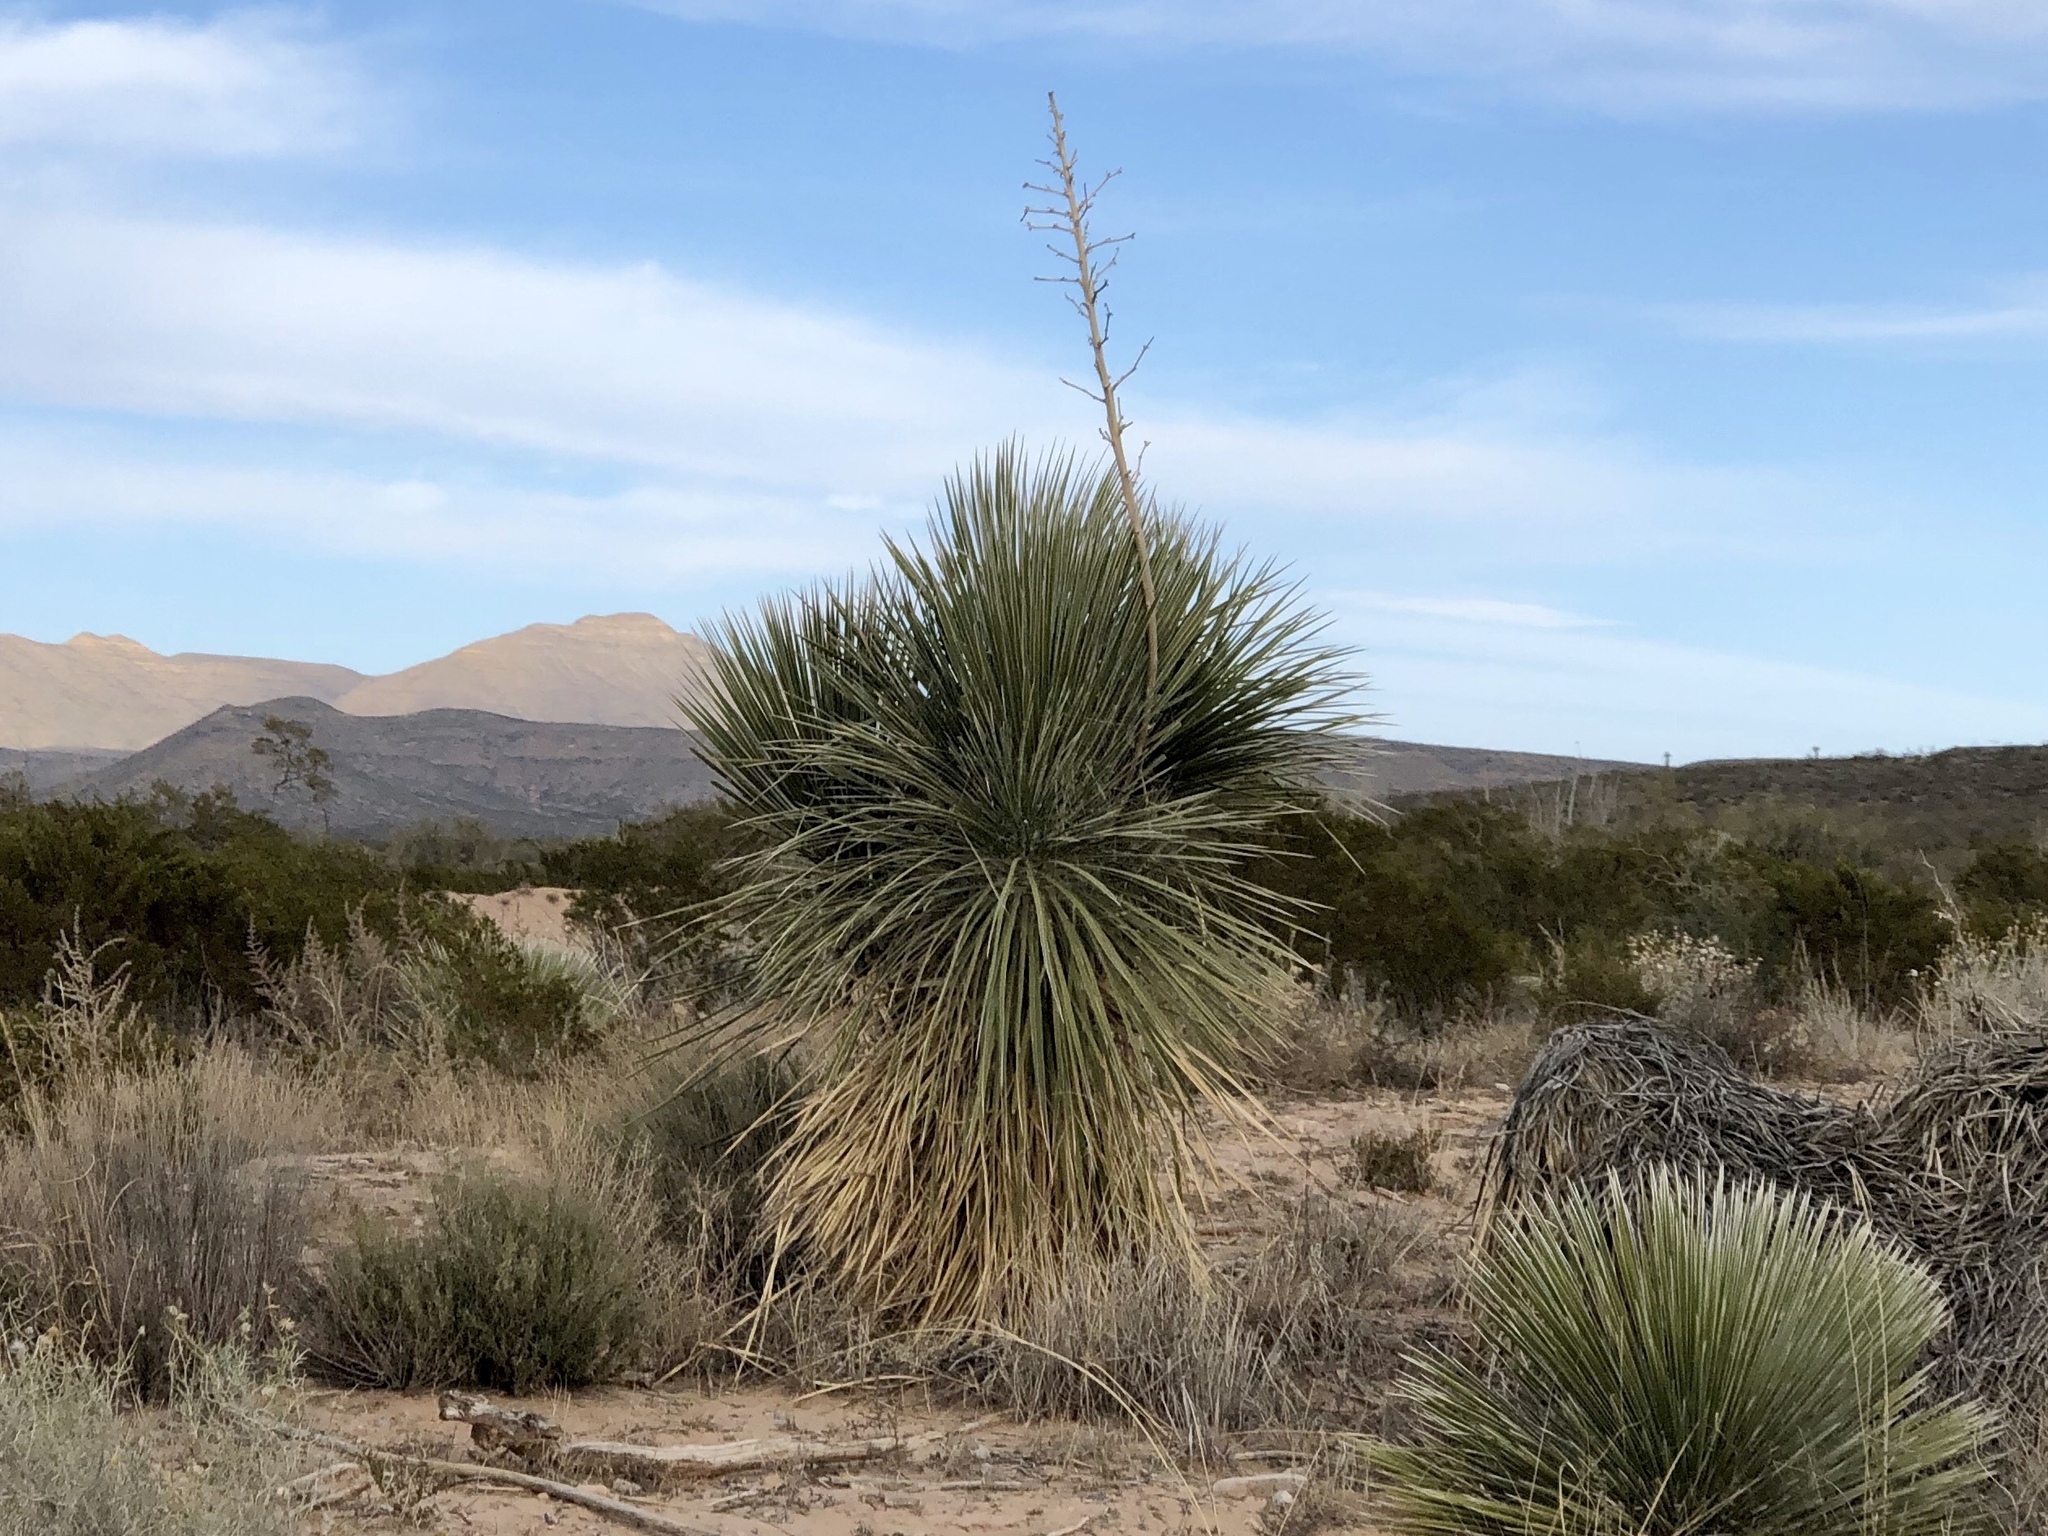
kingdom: Plantae
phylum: Tracheophyta
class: Liliopsida
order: Asparagales
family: Asparagaceae
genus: Yucca
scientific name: Yucca elata
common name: Palmella
